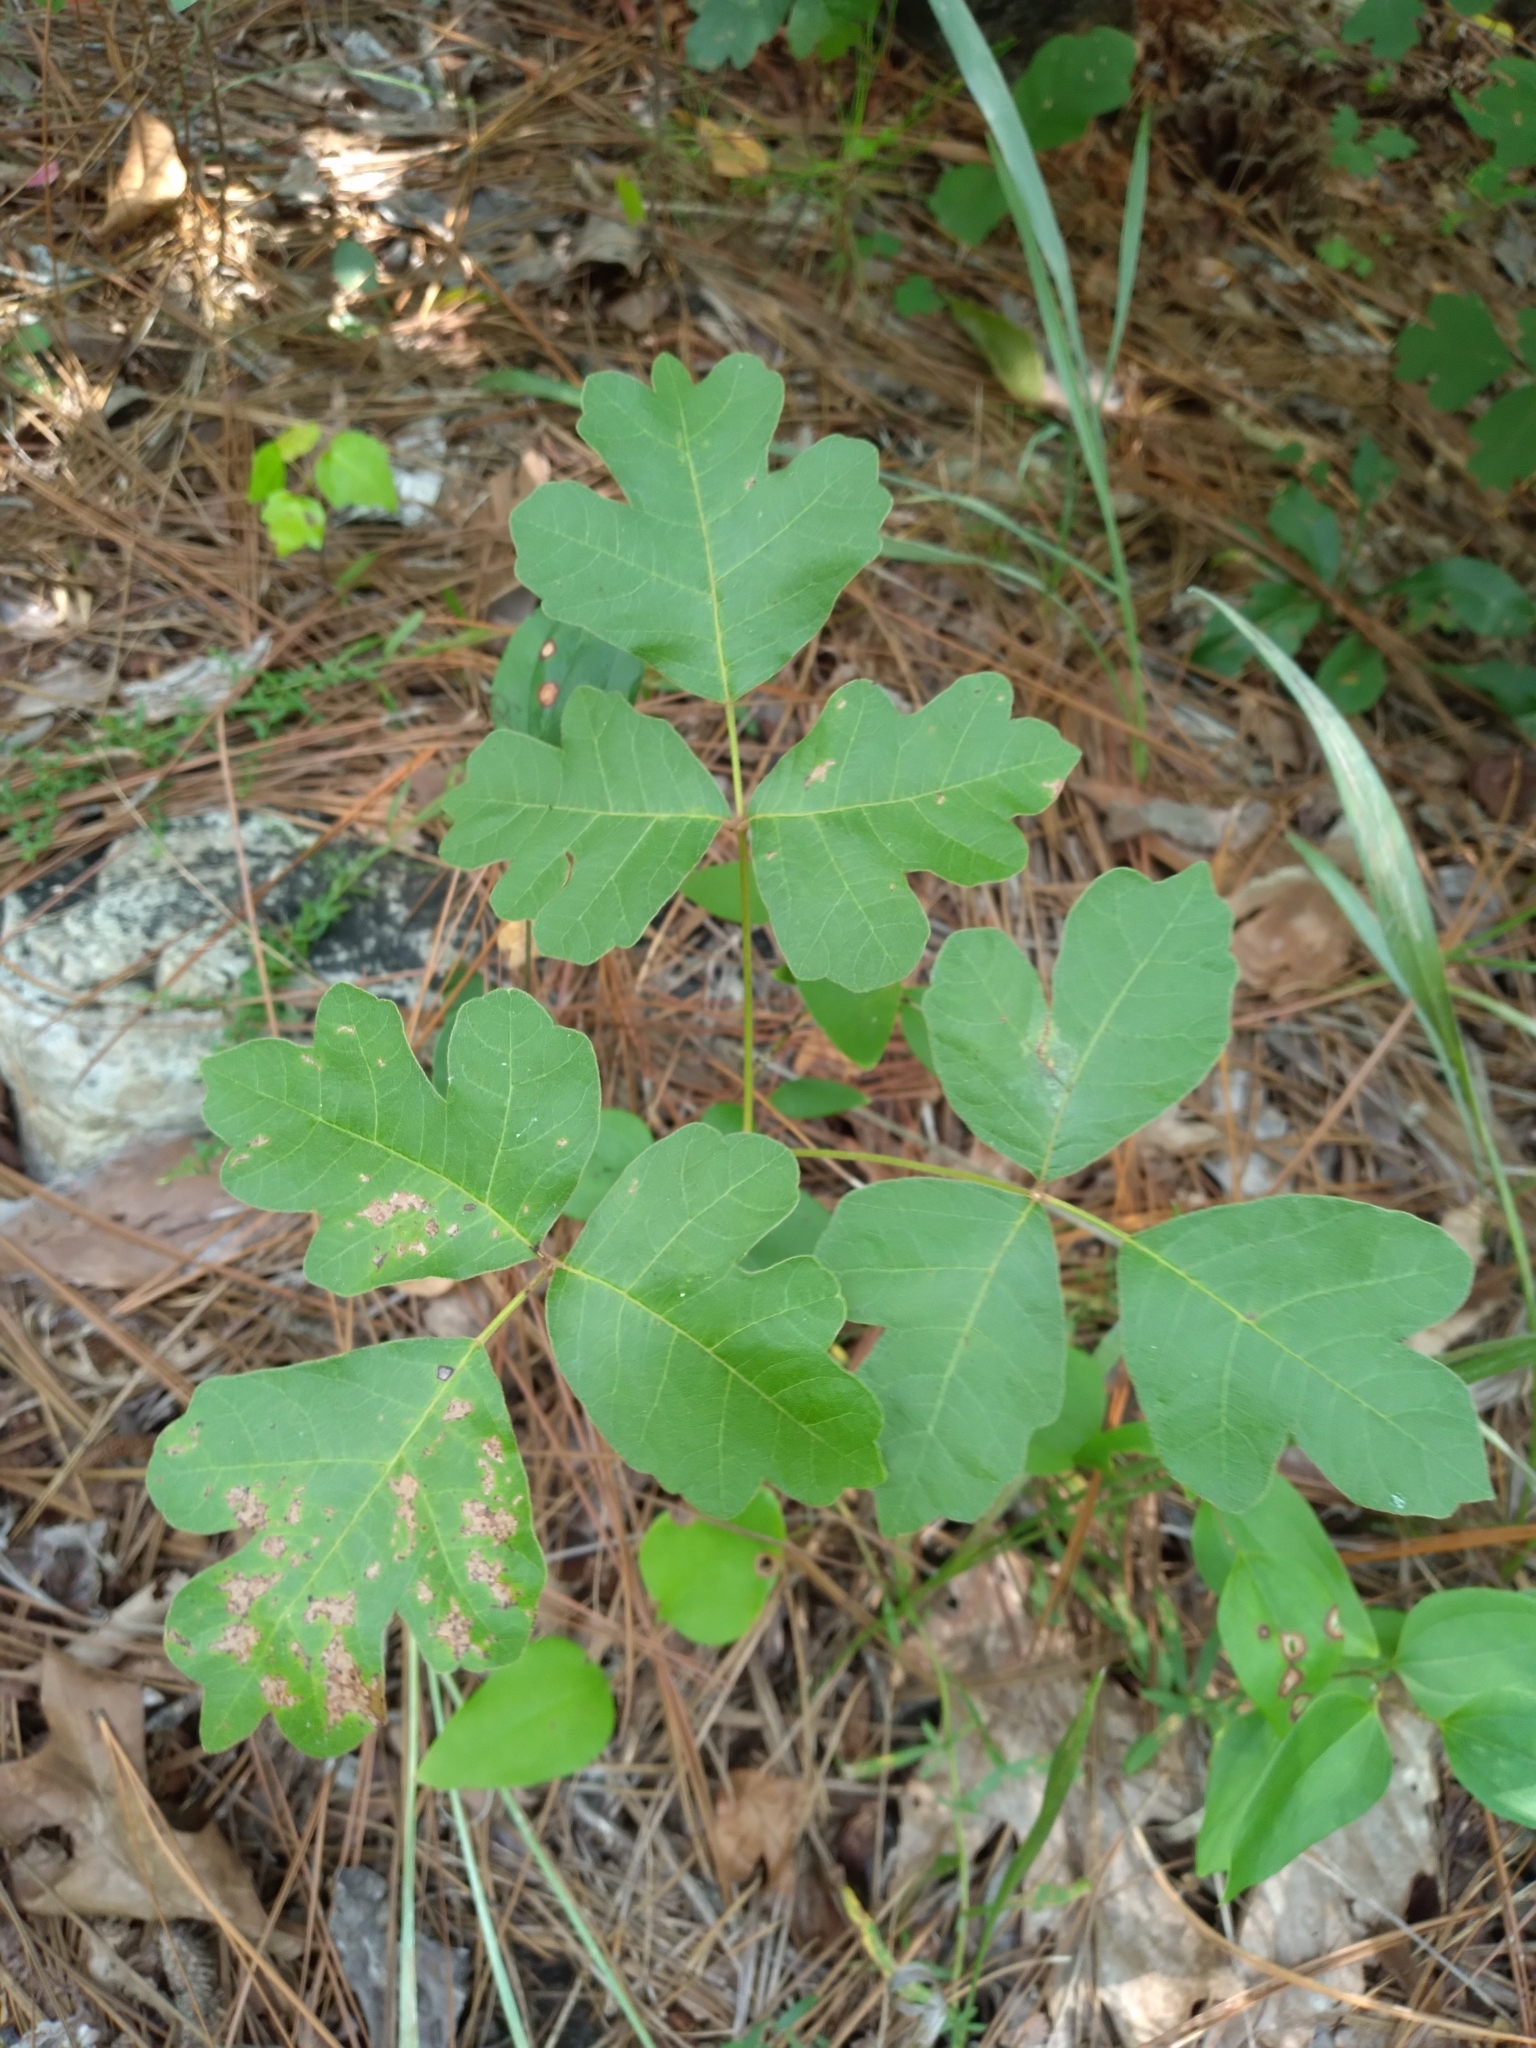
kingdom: Plantae
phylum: Tracheophyta
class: Magnoliopsida
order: Sapindales
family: Anacardiaceae
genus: Toxicodendron
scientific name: Toxicodendron pubescens
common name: Eastern poison-oak
